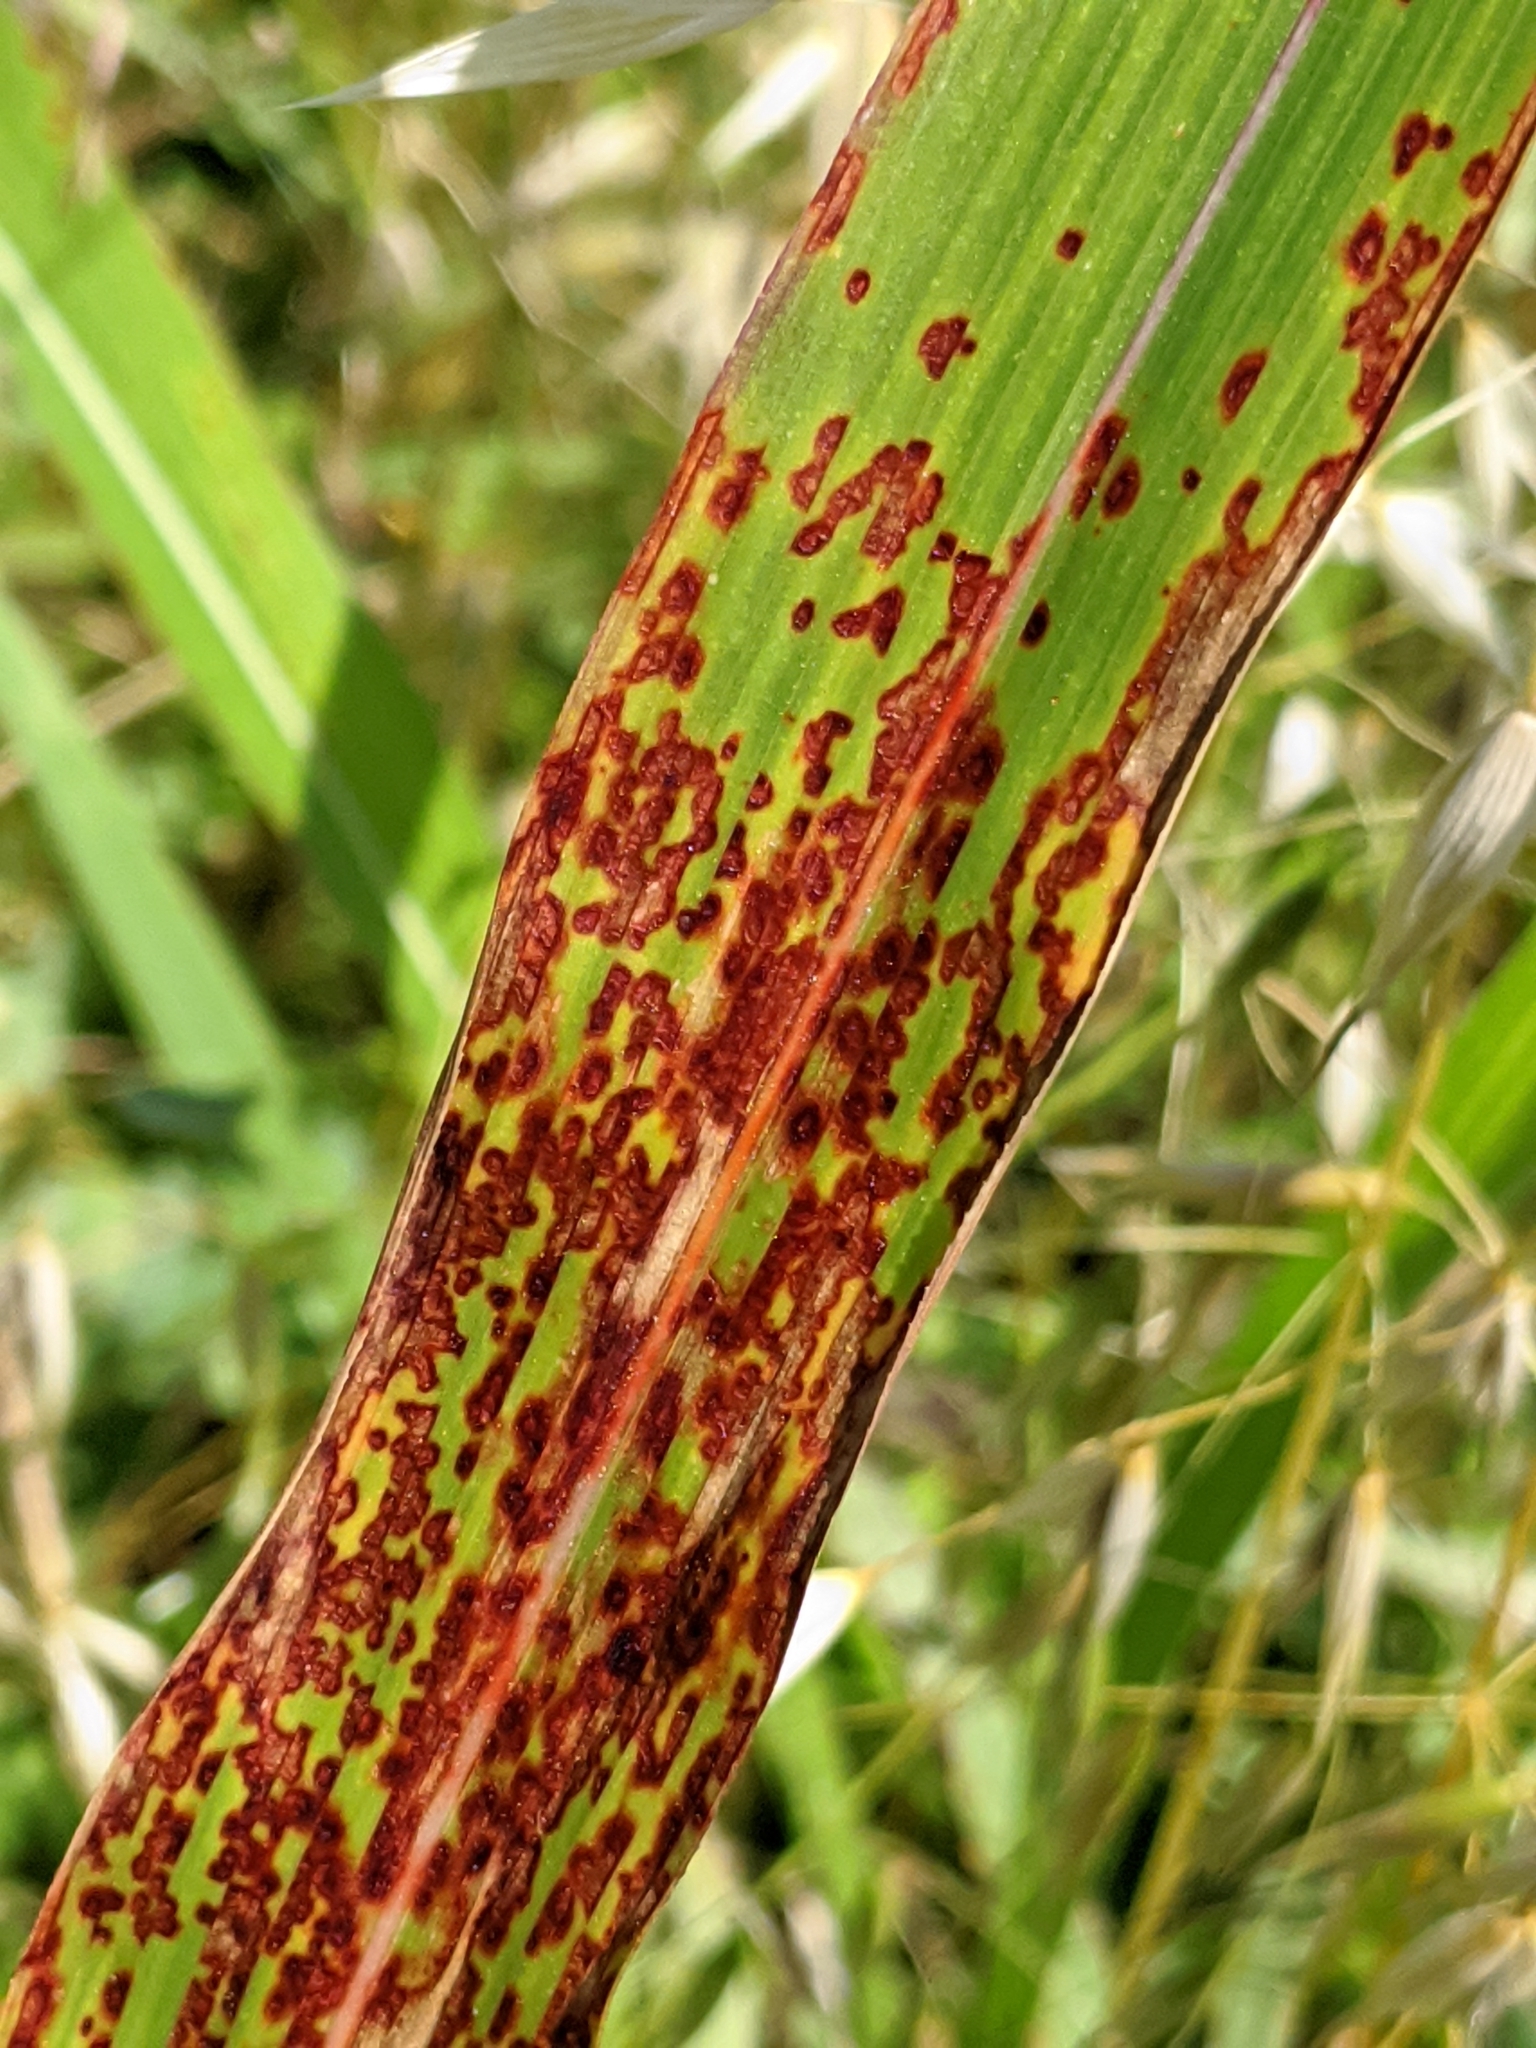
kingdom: Fungi
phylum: Basidiomycota
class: Pucciniomycetes
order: Pucciniales
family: Pucciniaceae
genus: Puccinia
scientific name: Puccinia purpurea
